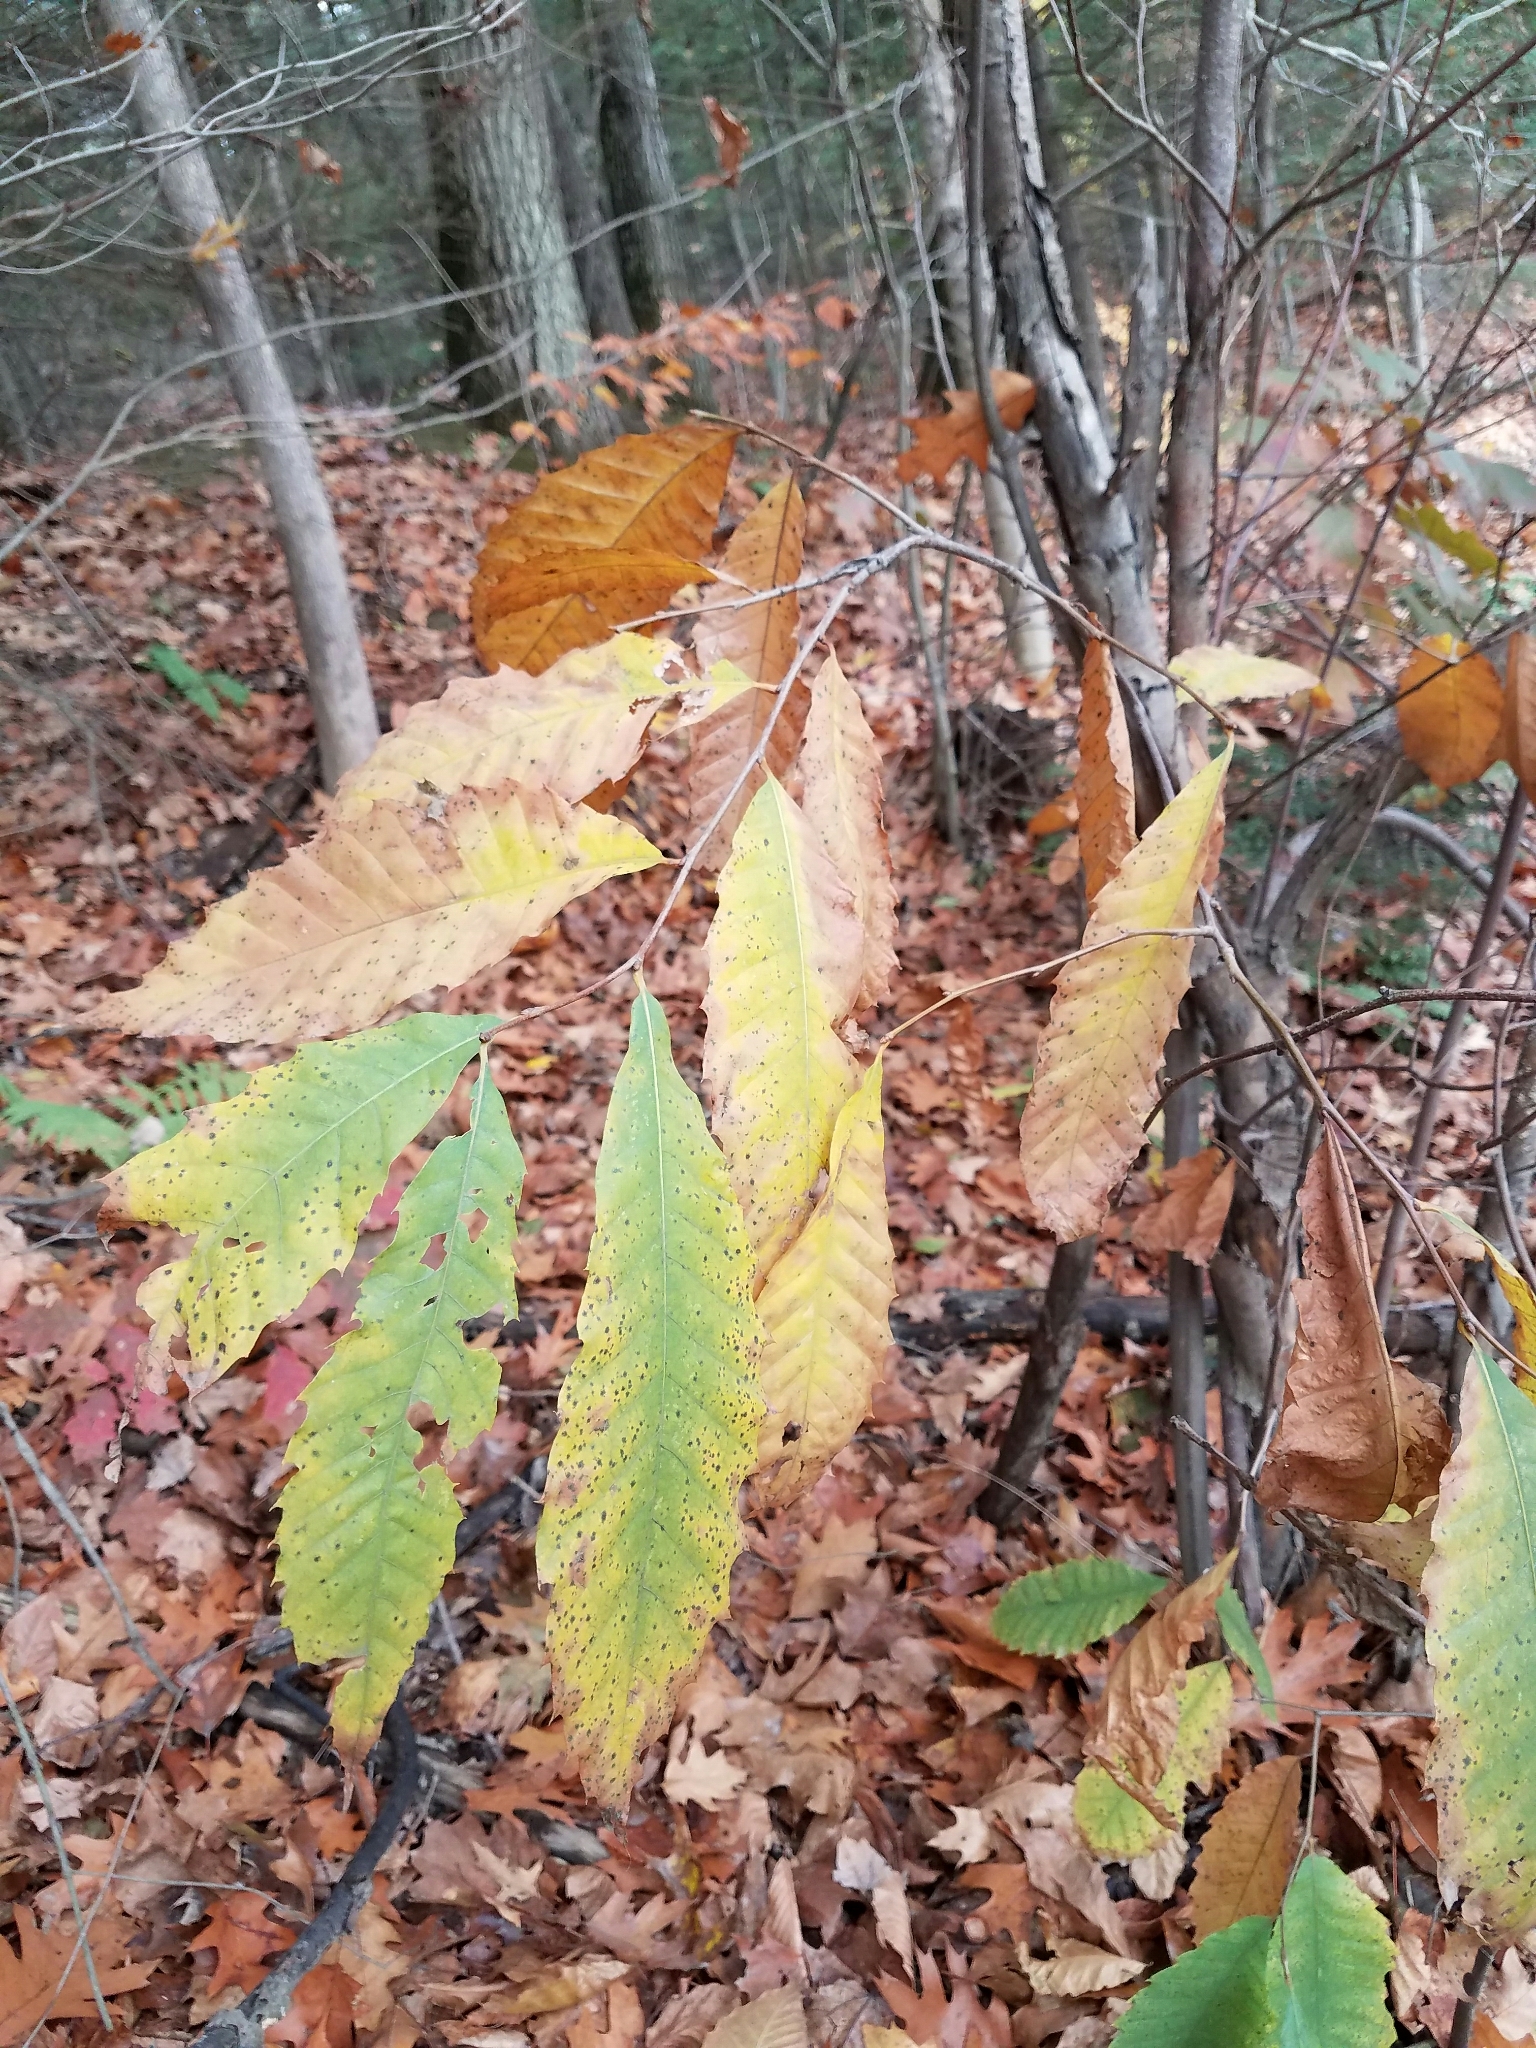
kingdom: Plantae
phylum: Tracheophyta
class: Magnoliopsida
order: Fagales
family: Fagaceae
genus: Castanea
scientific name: Castanea dentata
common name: American chestnut
